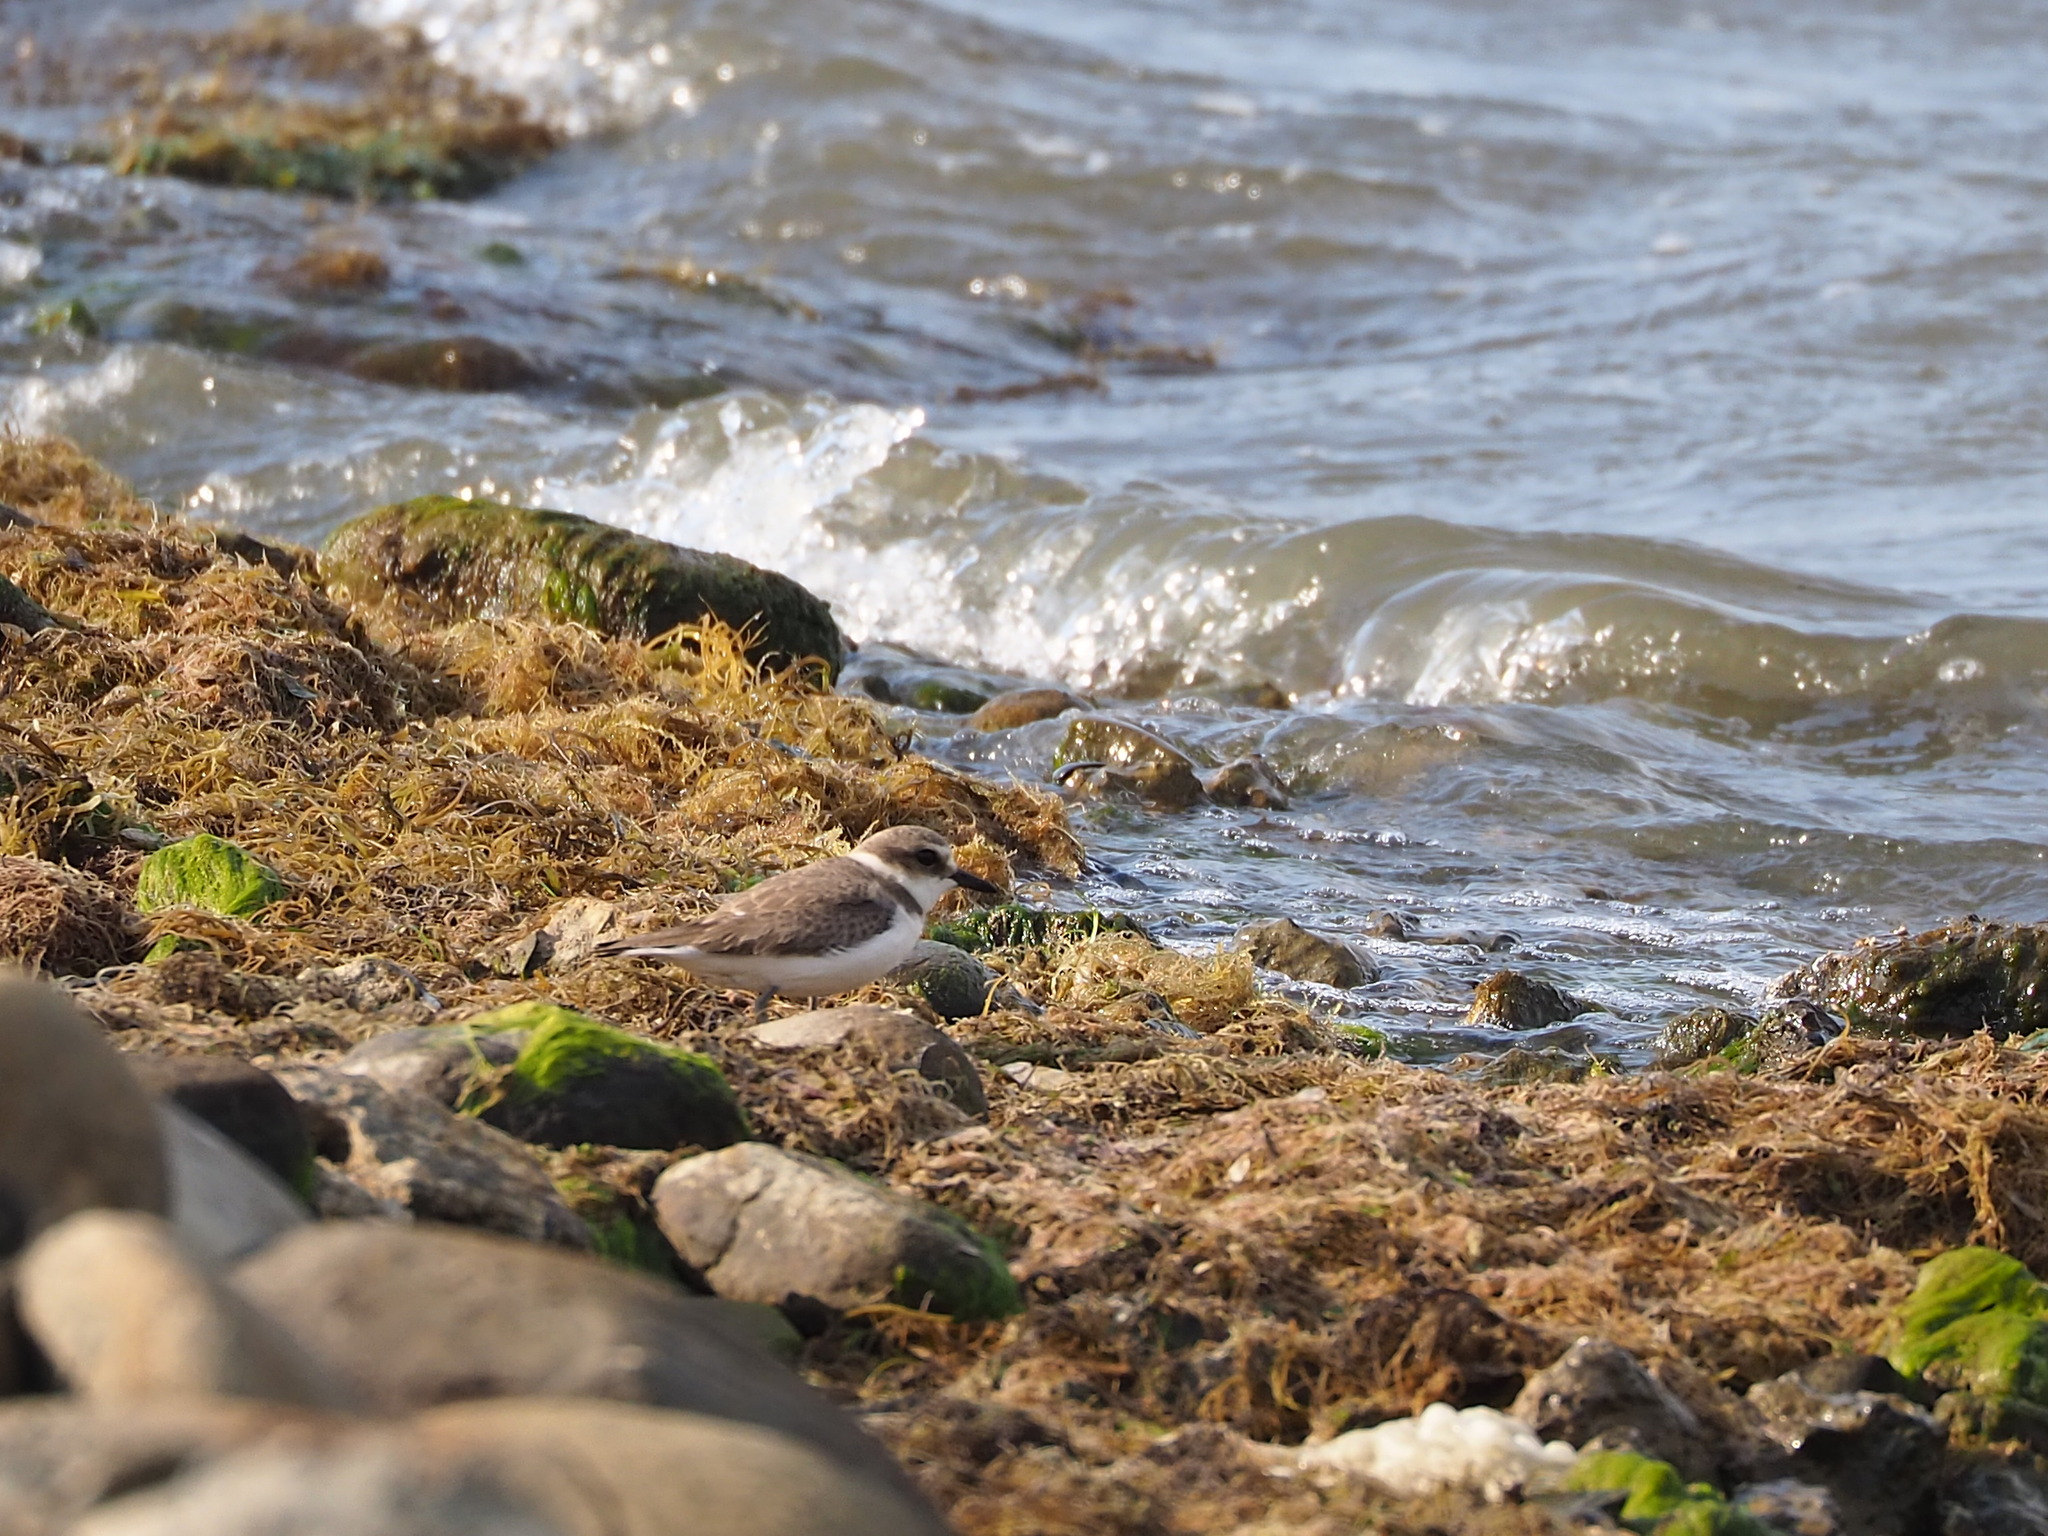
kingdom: Animalia
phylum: Chordata
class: Aves
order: Charadriiformes
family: Charadriidae
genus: Charadrius
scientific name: Charadrius alexandrinus
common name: Kentish plover
